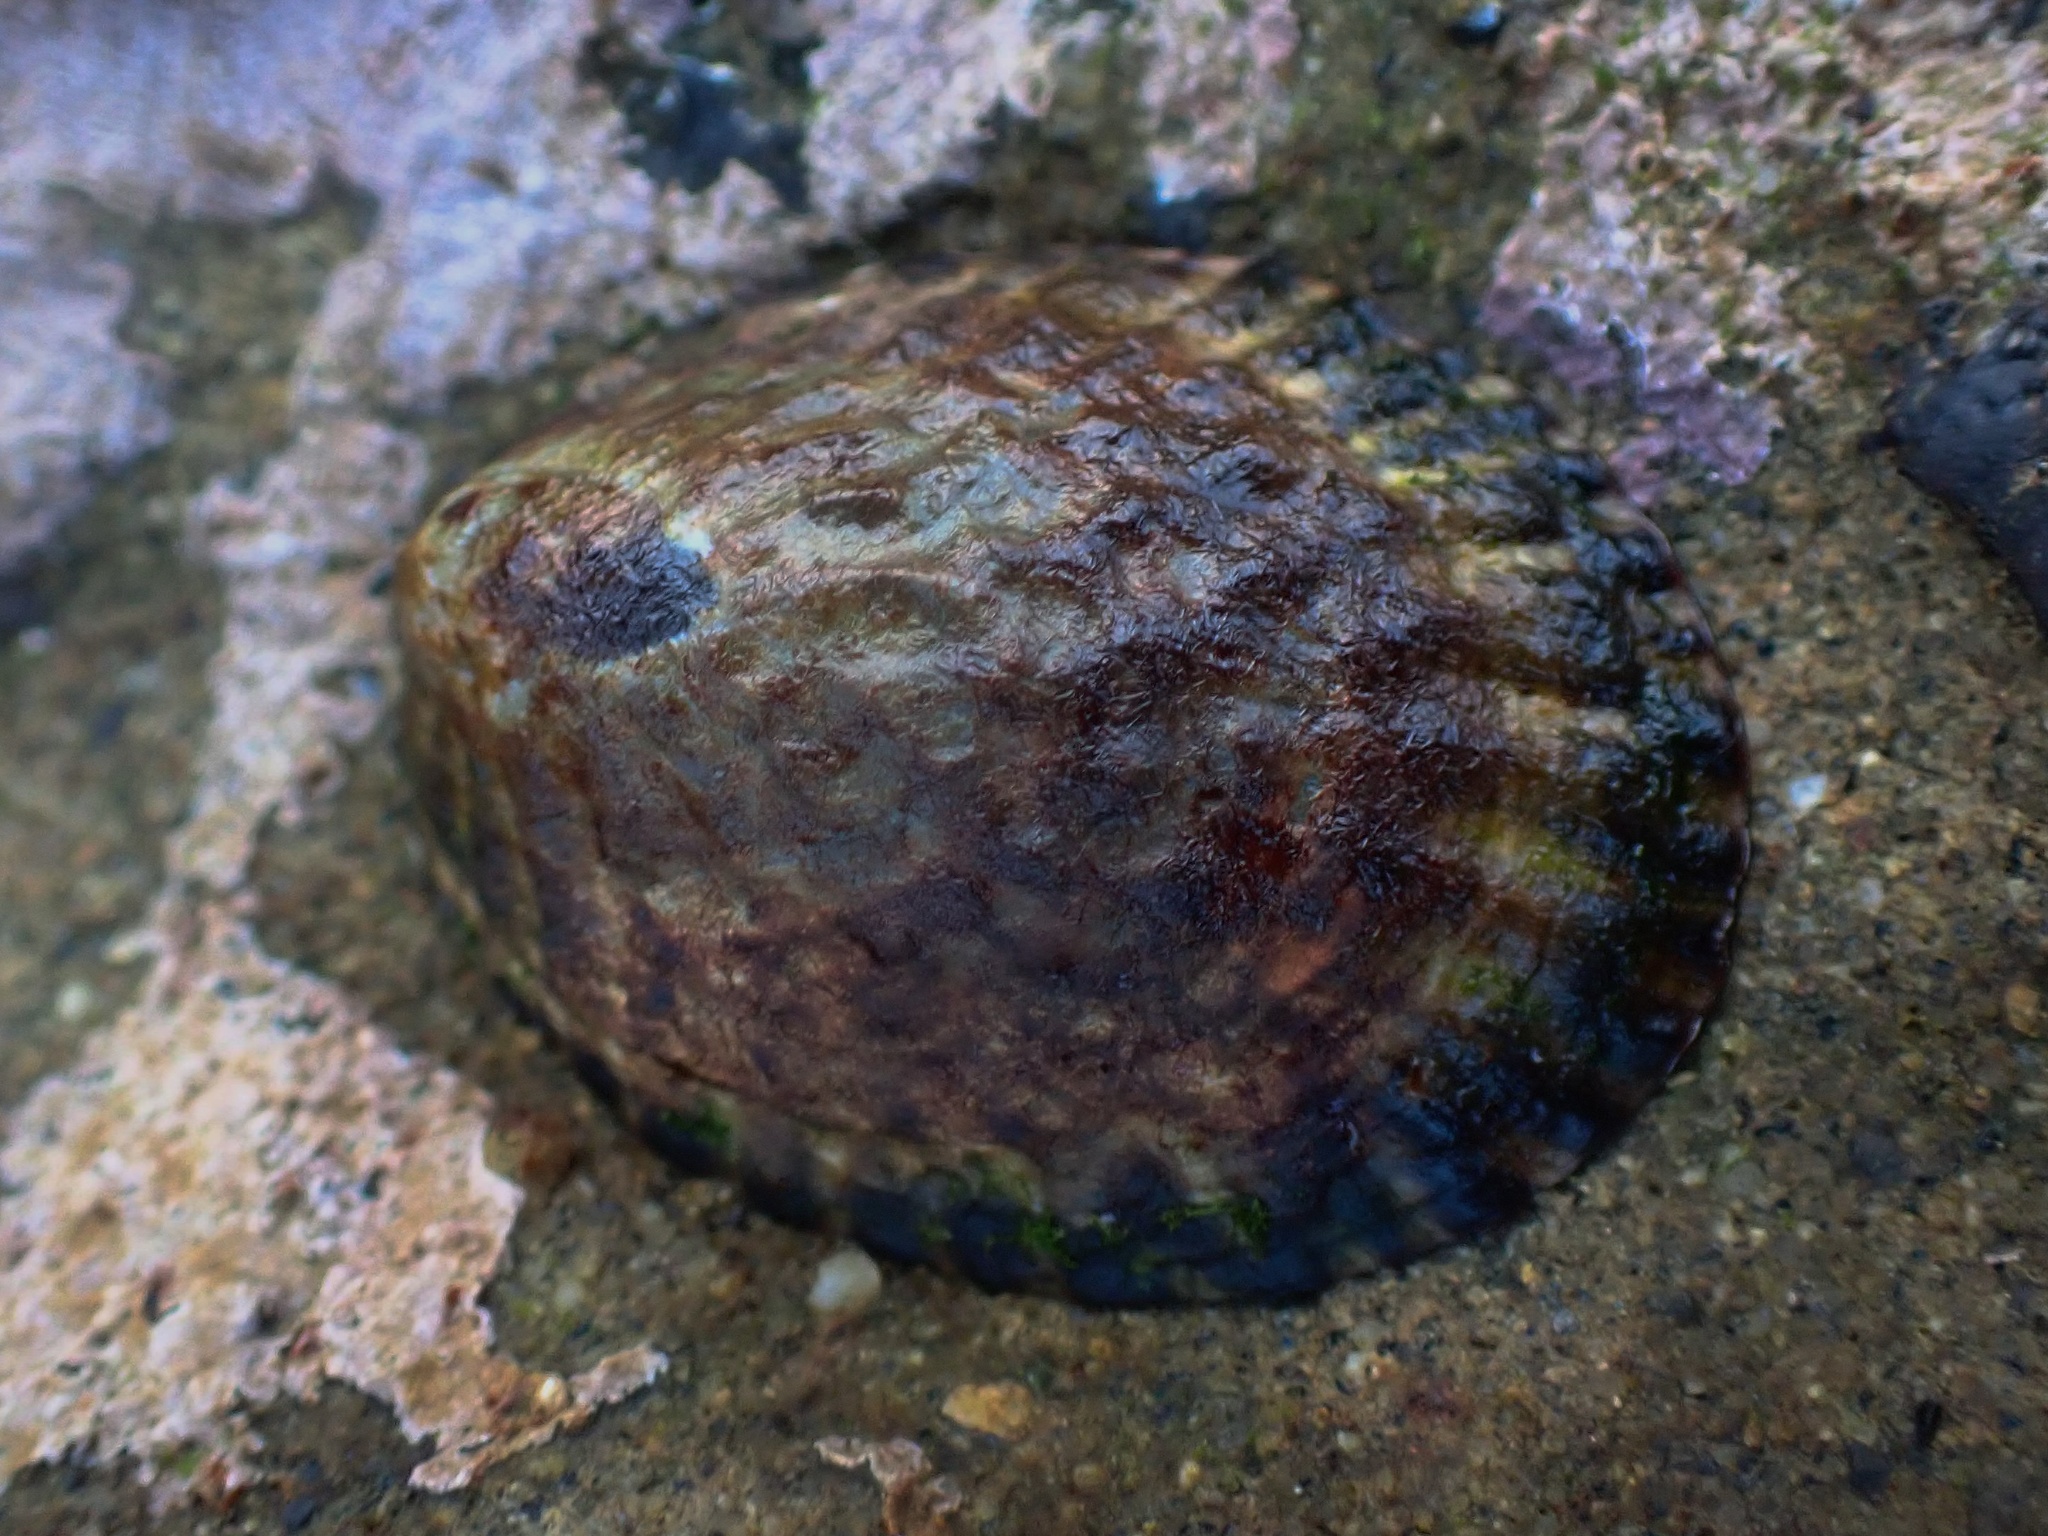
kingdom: Animalia
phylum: Mollusca
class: Gastropoda
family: Lottiidae
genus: Lottia
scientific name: Lottia gigantea
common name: Owl limpet
